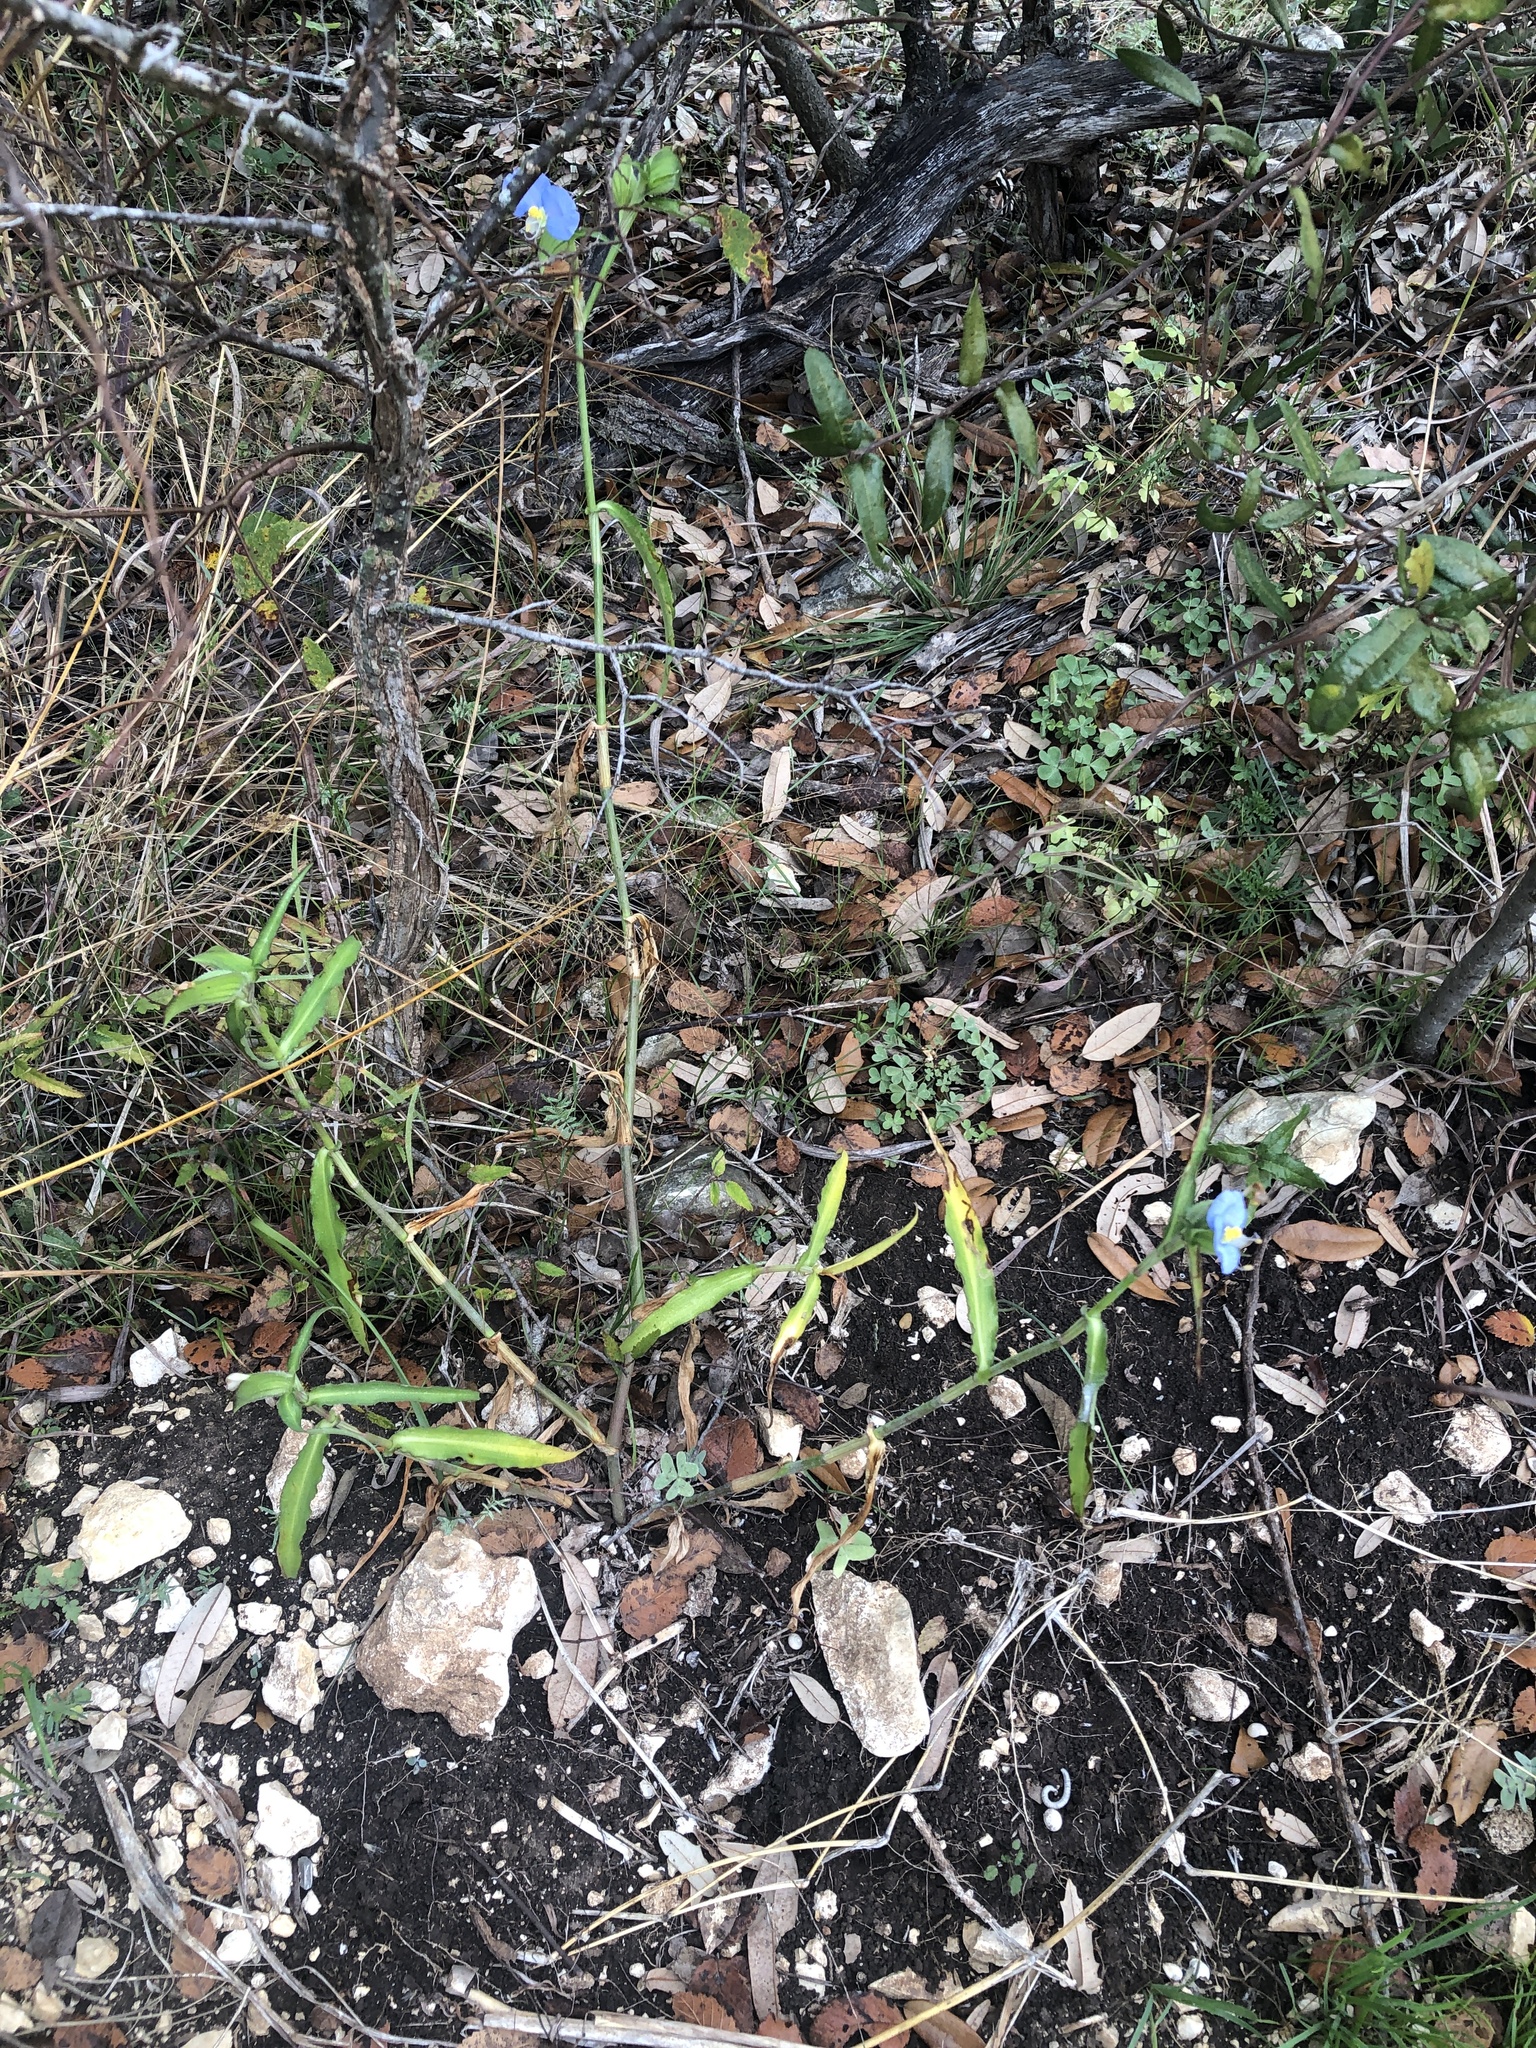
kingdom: Plantae
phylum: Tracheophyta
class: Liliopsida
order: Commelinales
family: Commelinaceae
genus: Commelina
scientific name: Commelina erecta
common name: Blousel blommetjie
